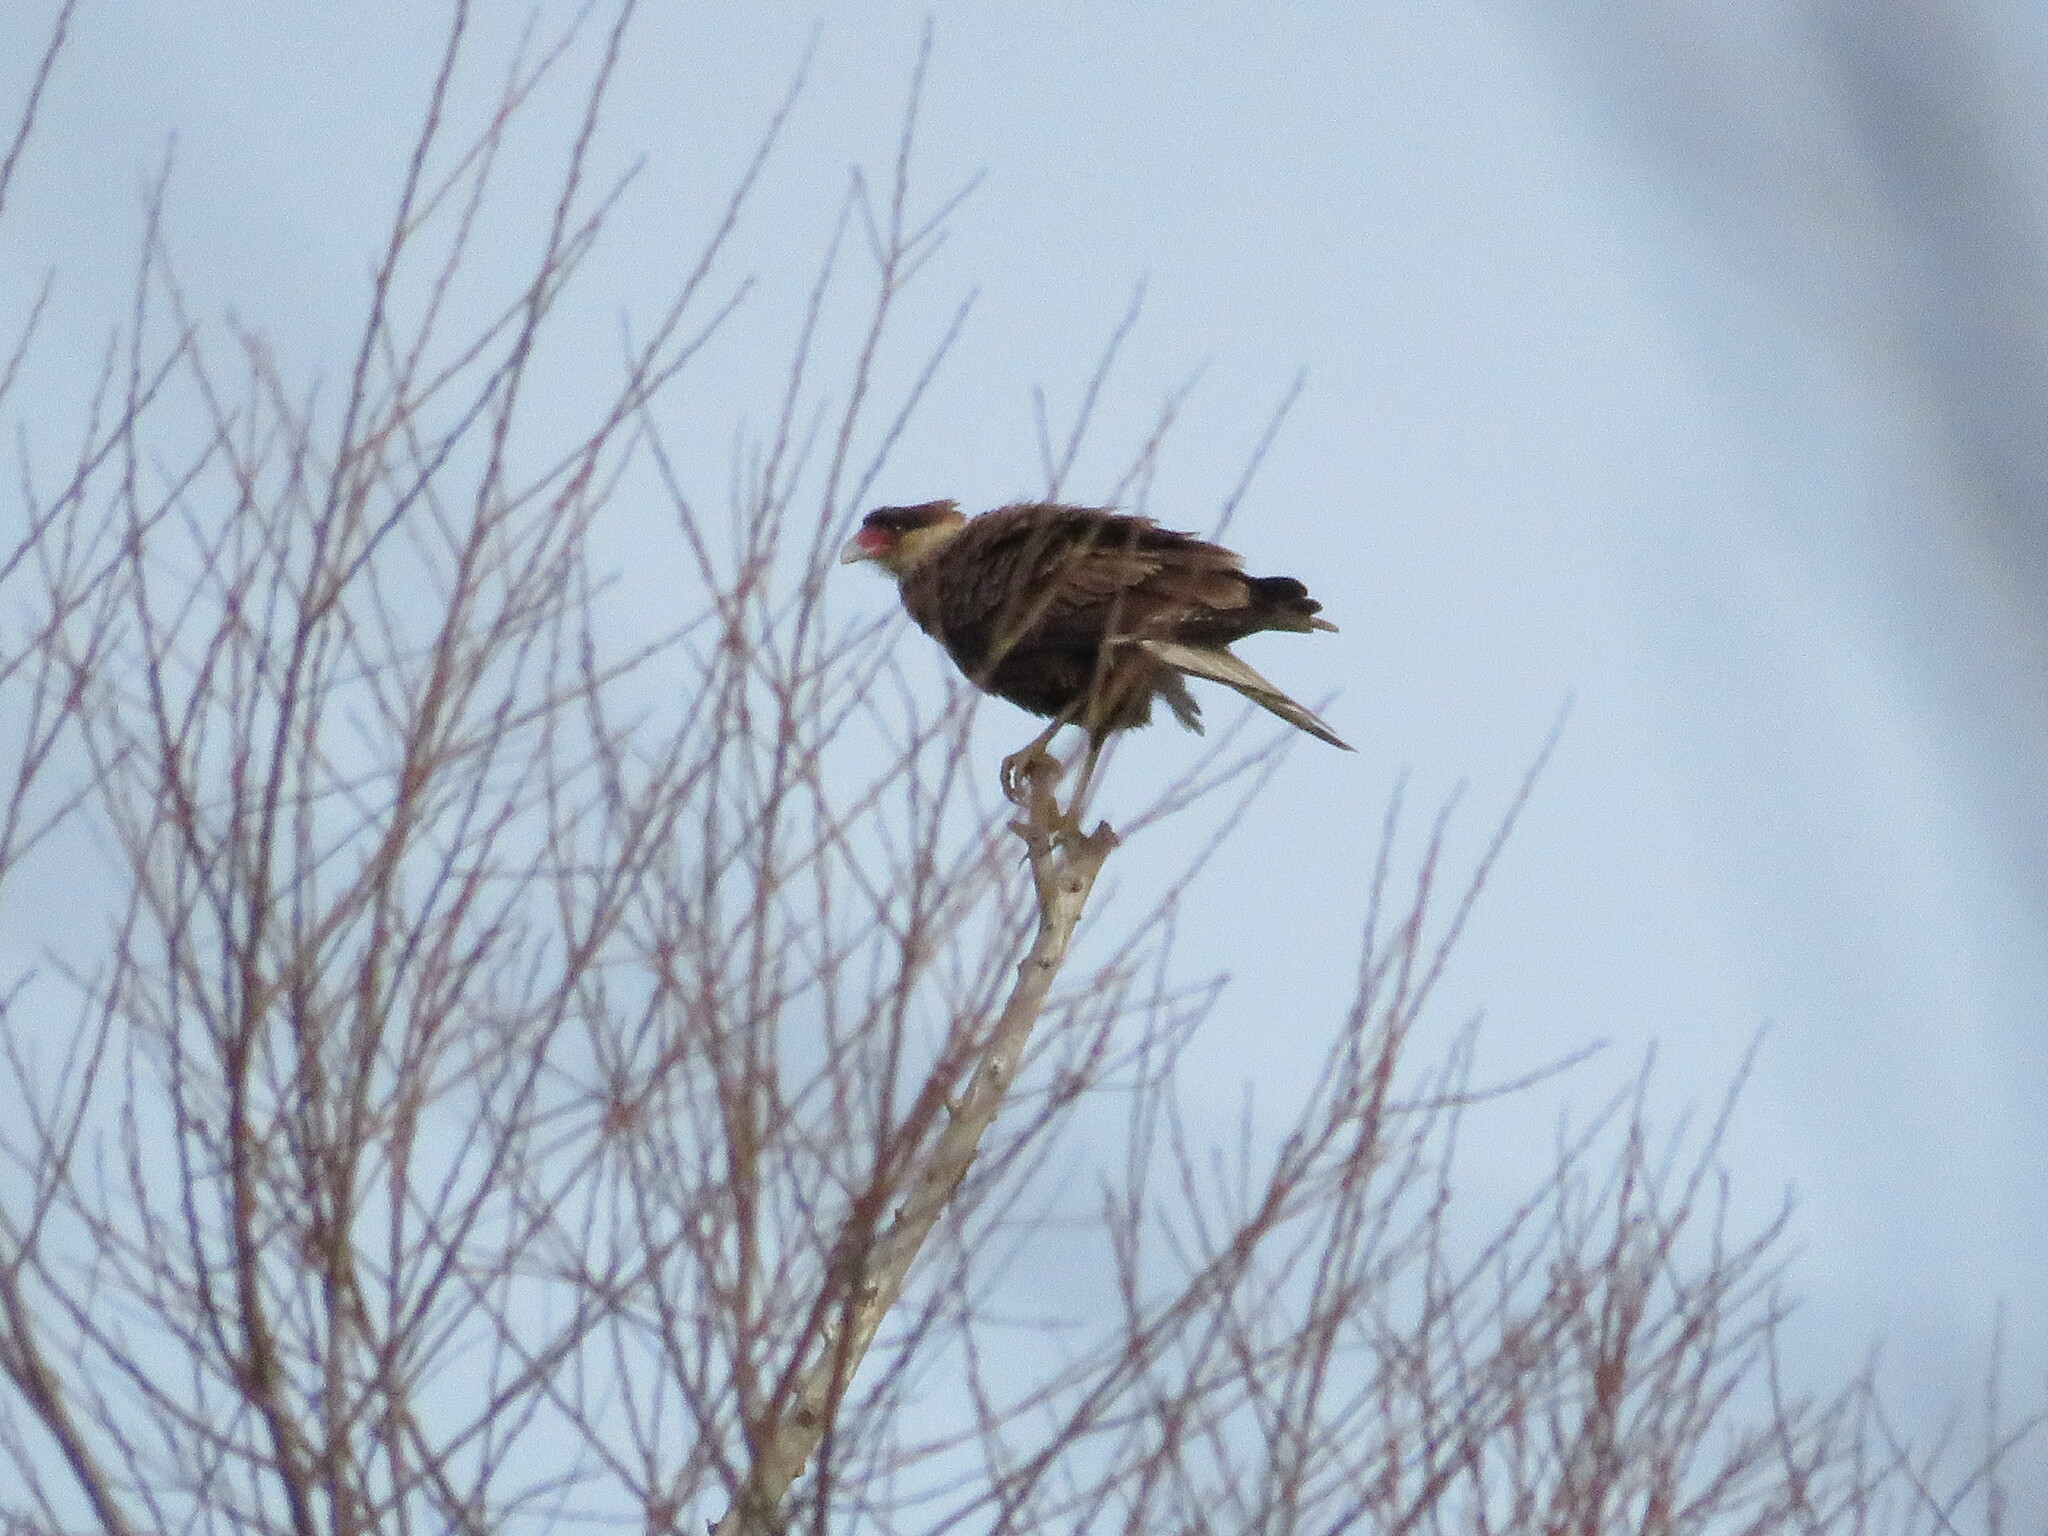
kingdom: Animalia
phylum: Chordata
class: Aves
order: Falconiformes
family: Falconidae
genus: Caracara
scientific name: Caracara plancus
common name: Southern caracara
